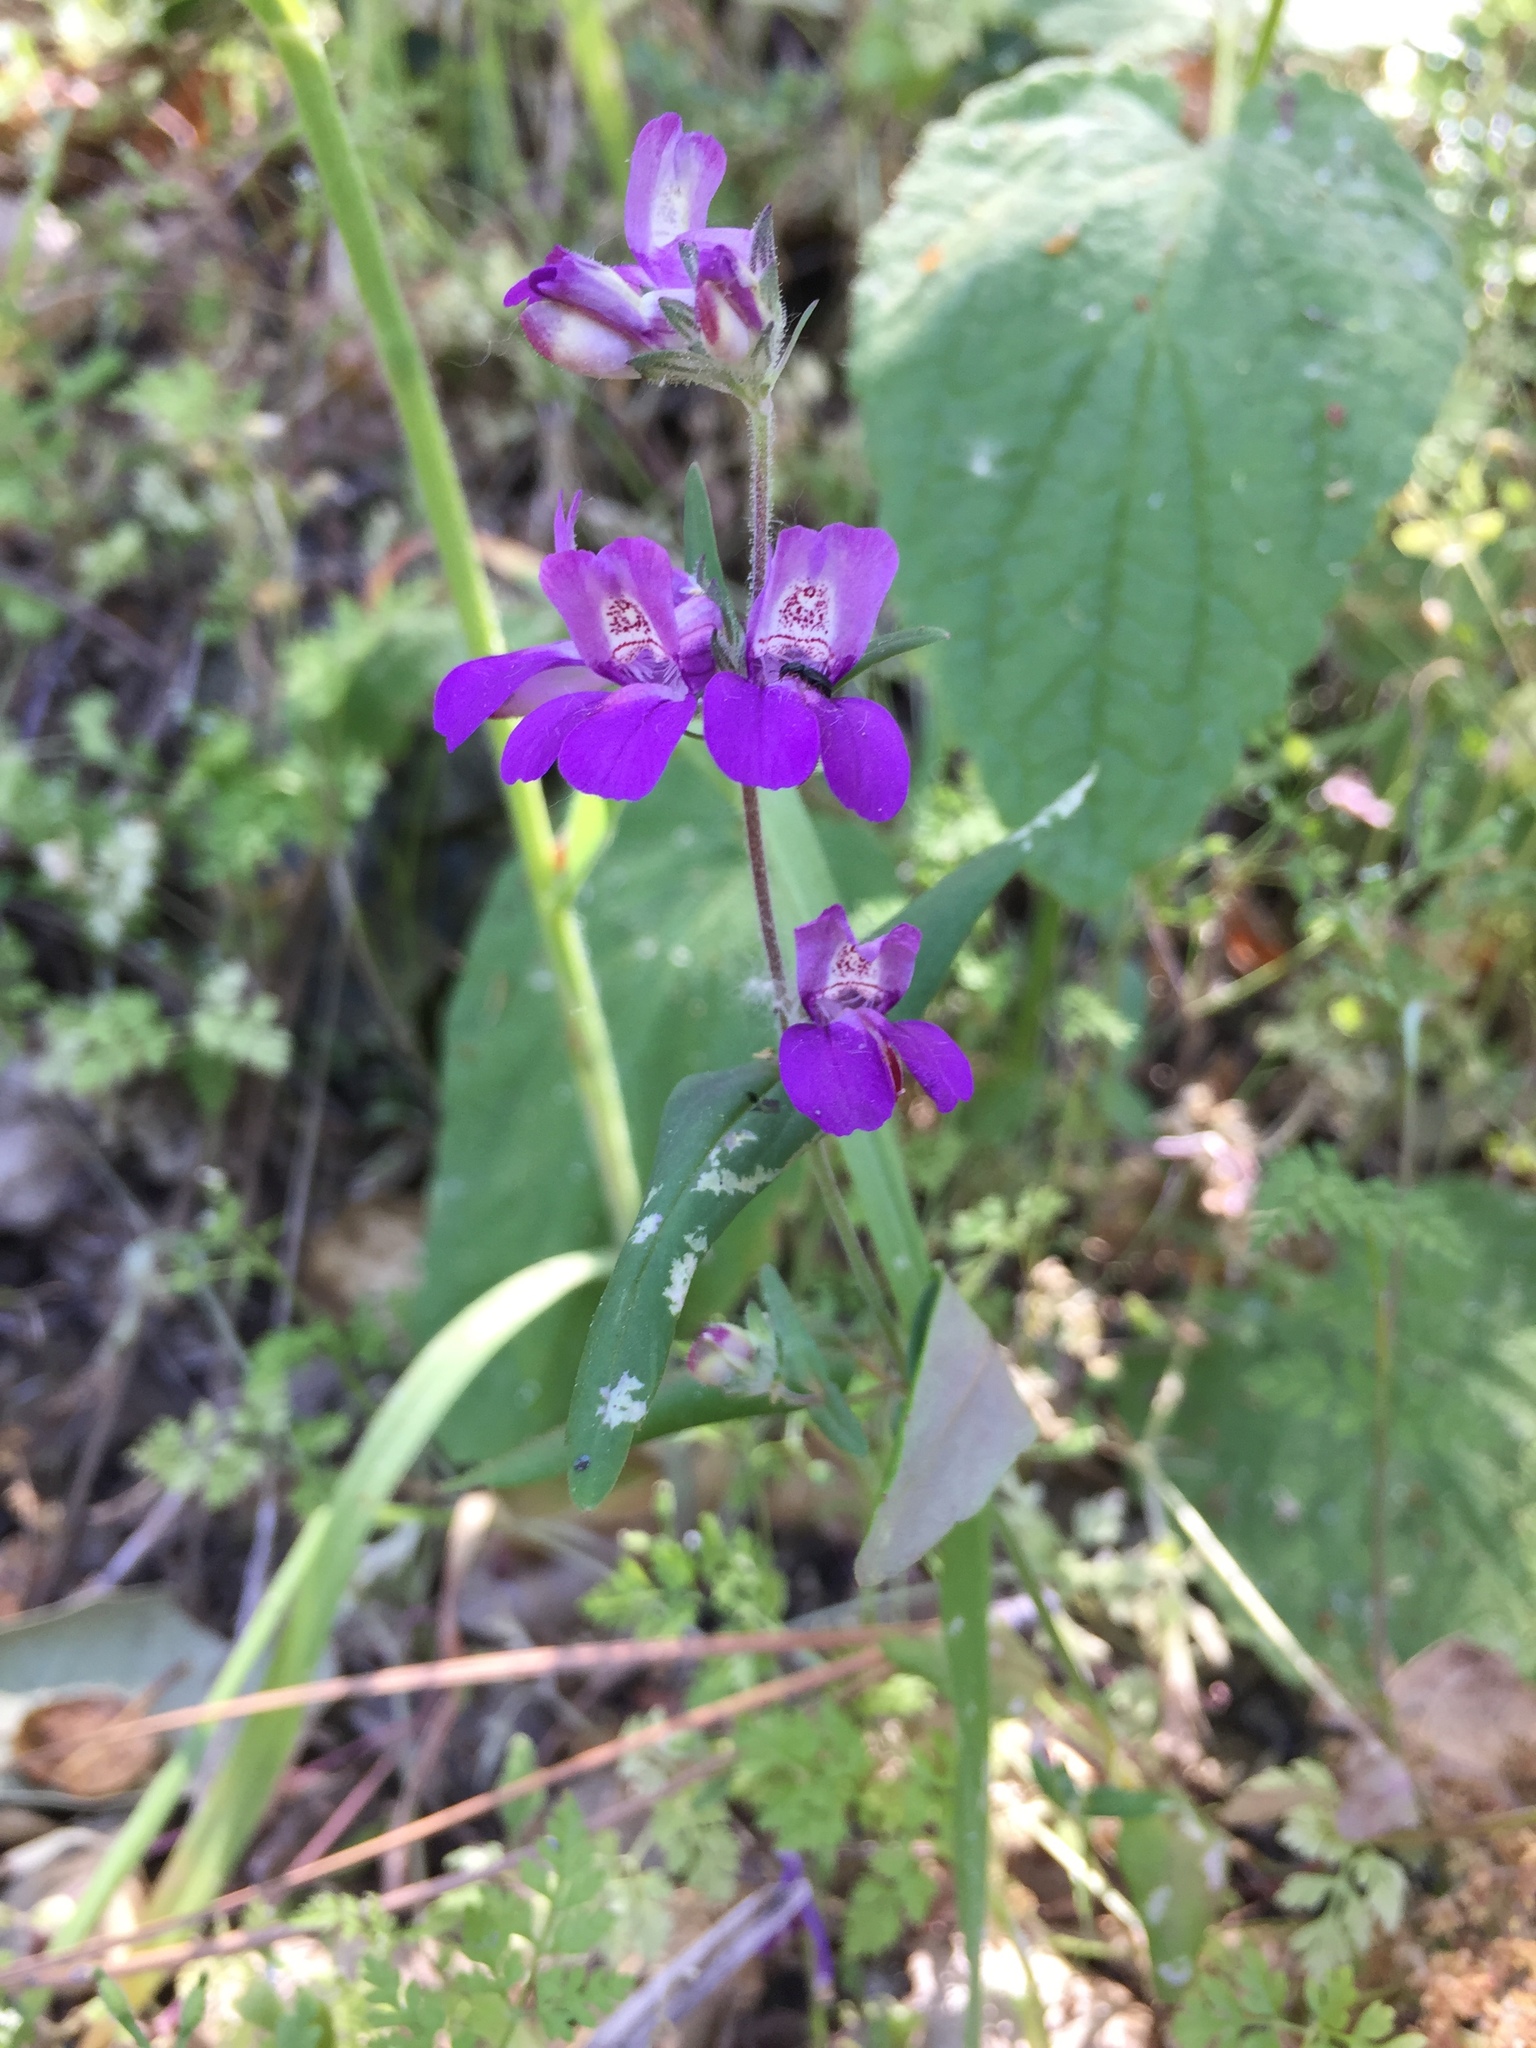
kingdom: Plantae
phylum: Tracheophyta
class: Magnoliopsida
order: Lamiales
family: Plantaginaceae
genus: Collinsia
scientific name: Collinsia heterophylla
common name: Chinese-houses
